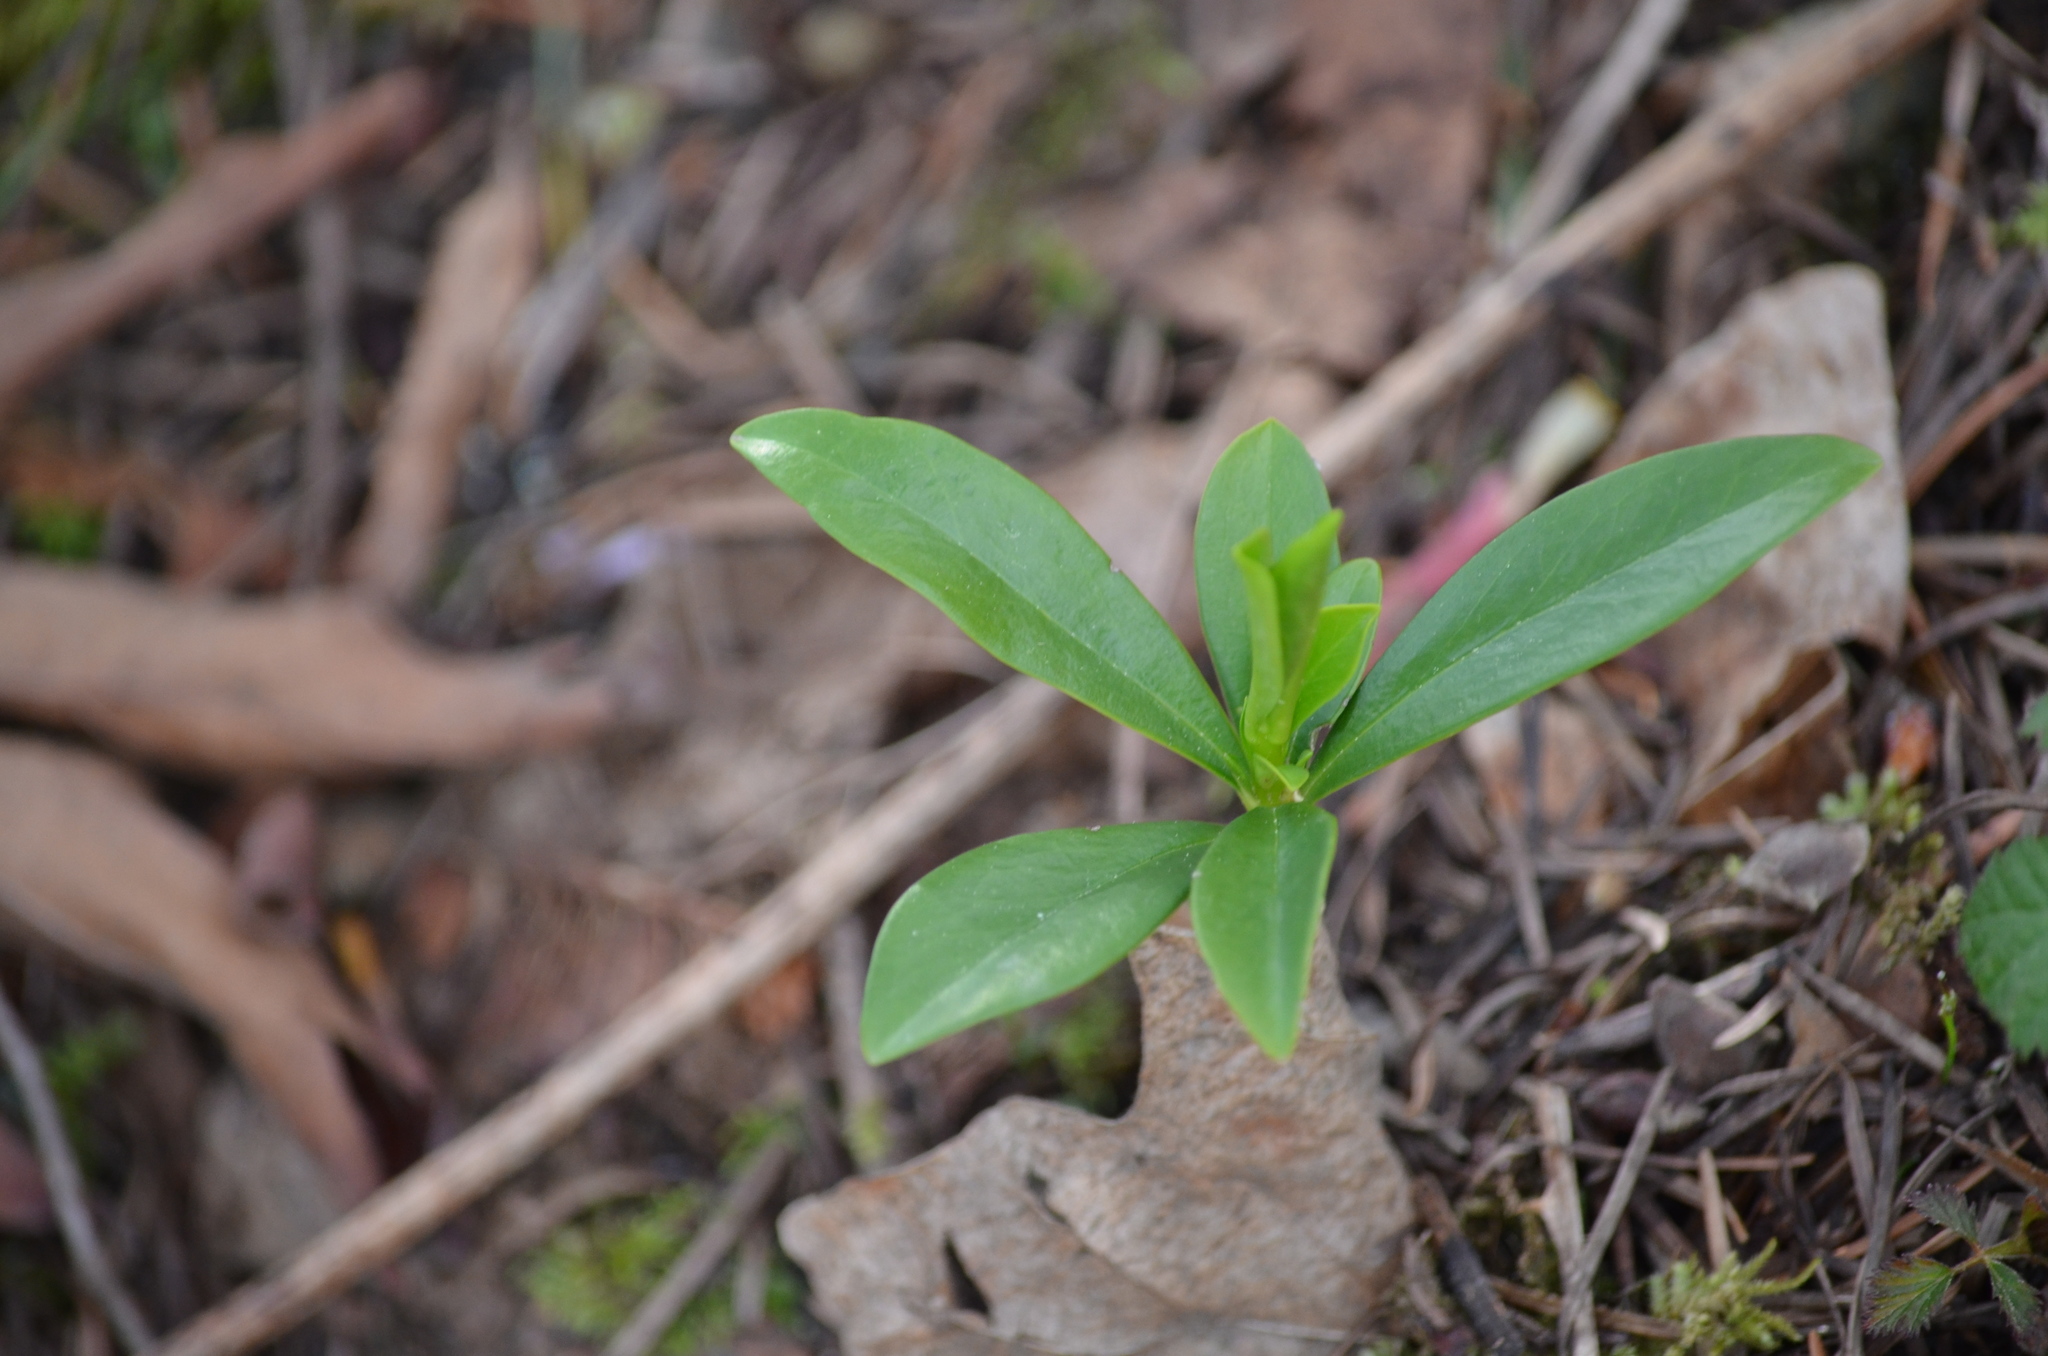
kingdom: Plantae
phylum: Tracheophyta
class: Magnoliopsida
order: Malvales
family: Thymelaeaceae
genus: Daphne
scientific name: Daphne laureola
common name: Spurge-laurel
